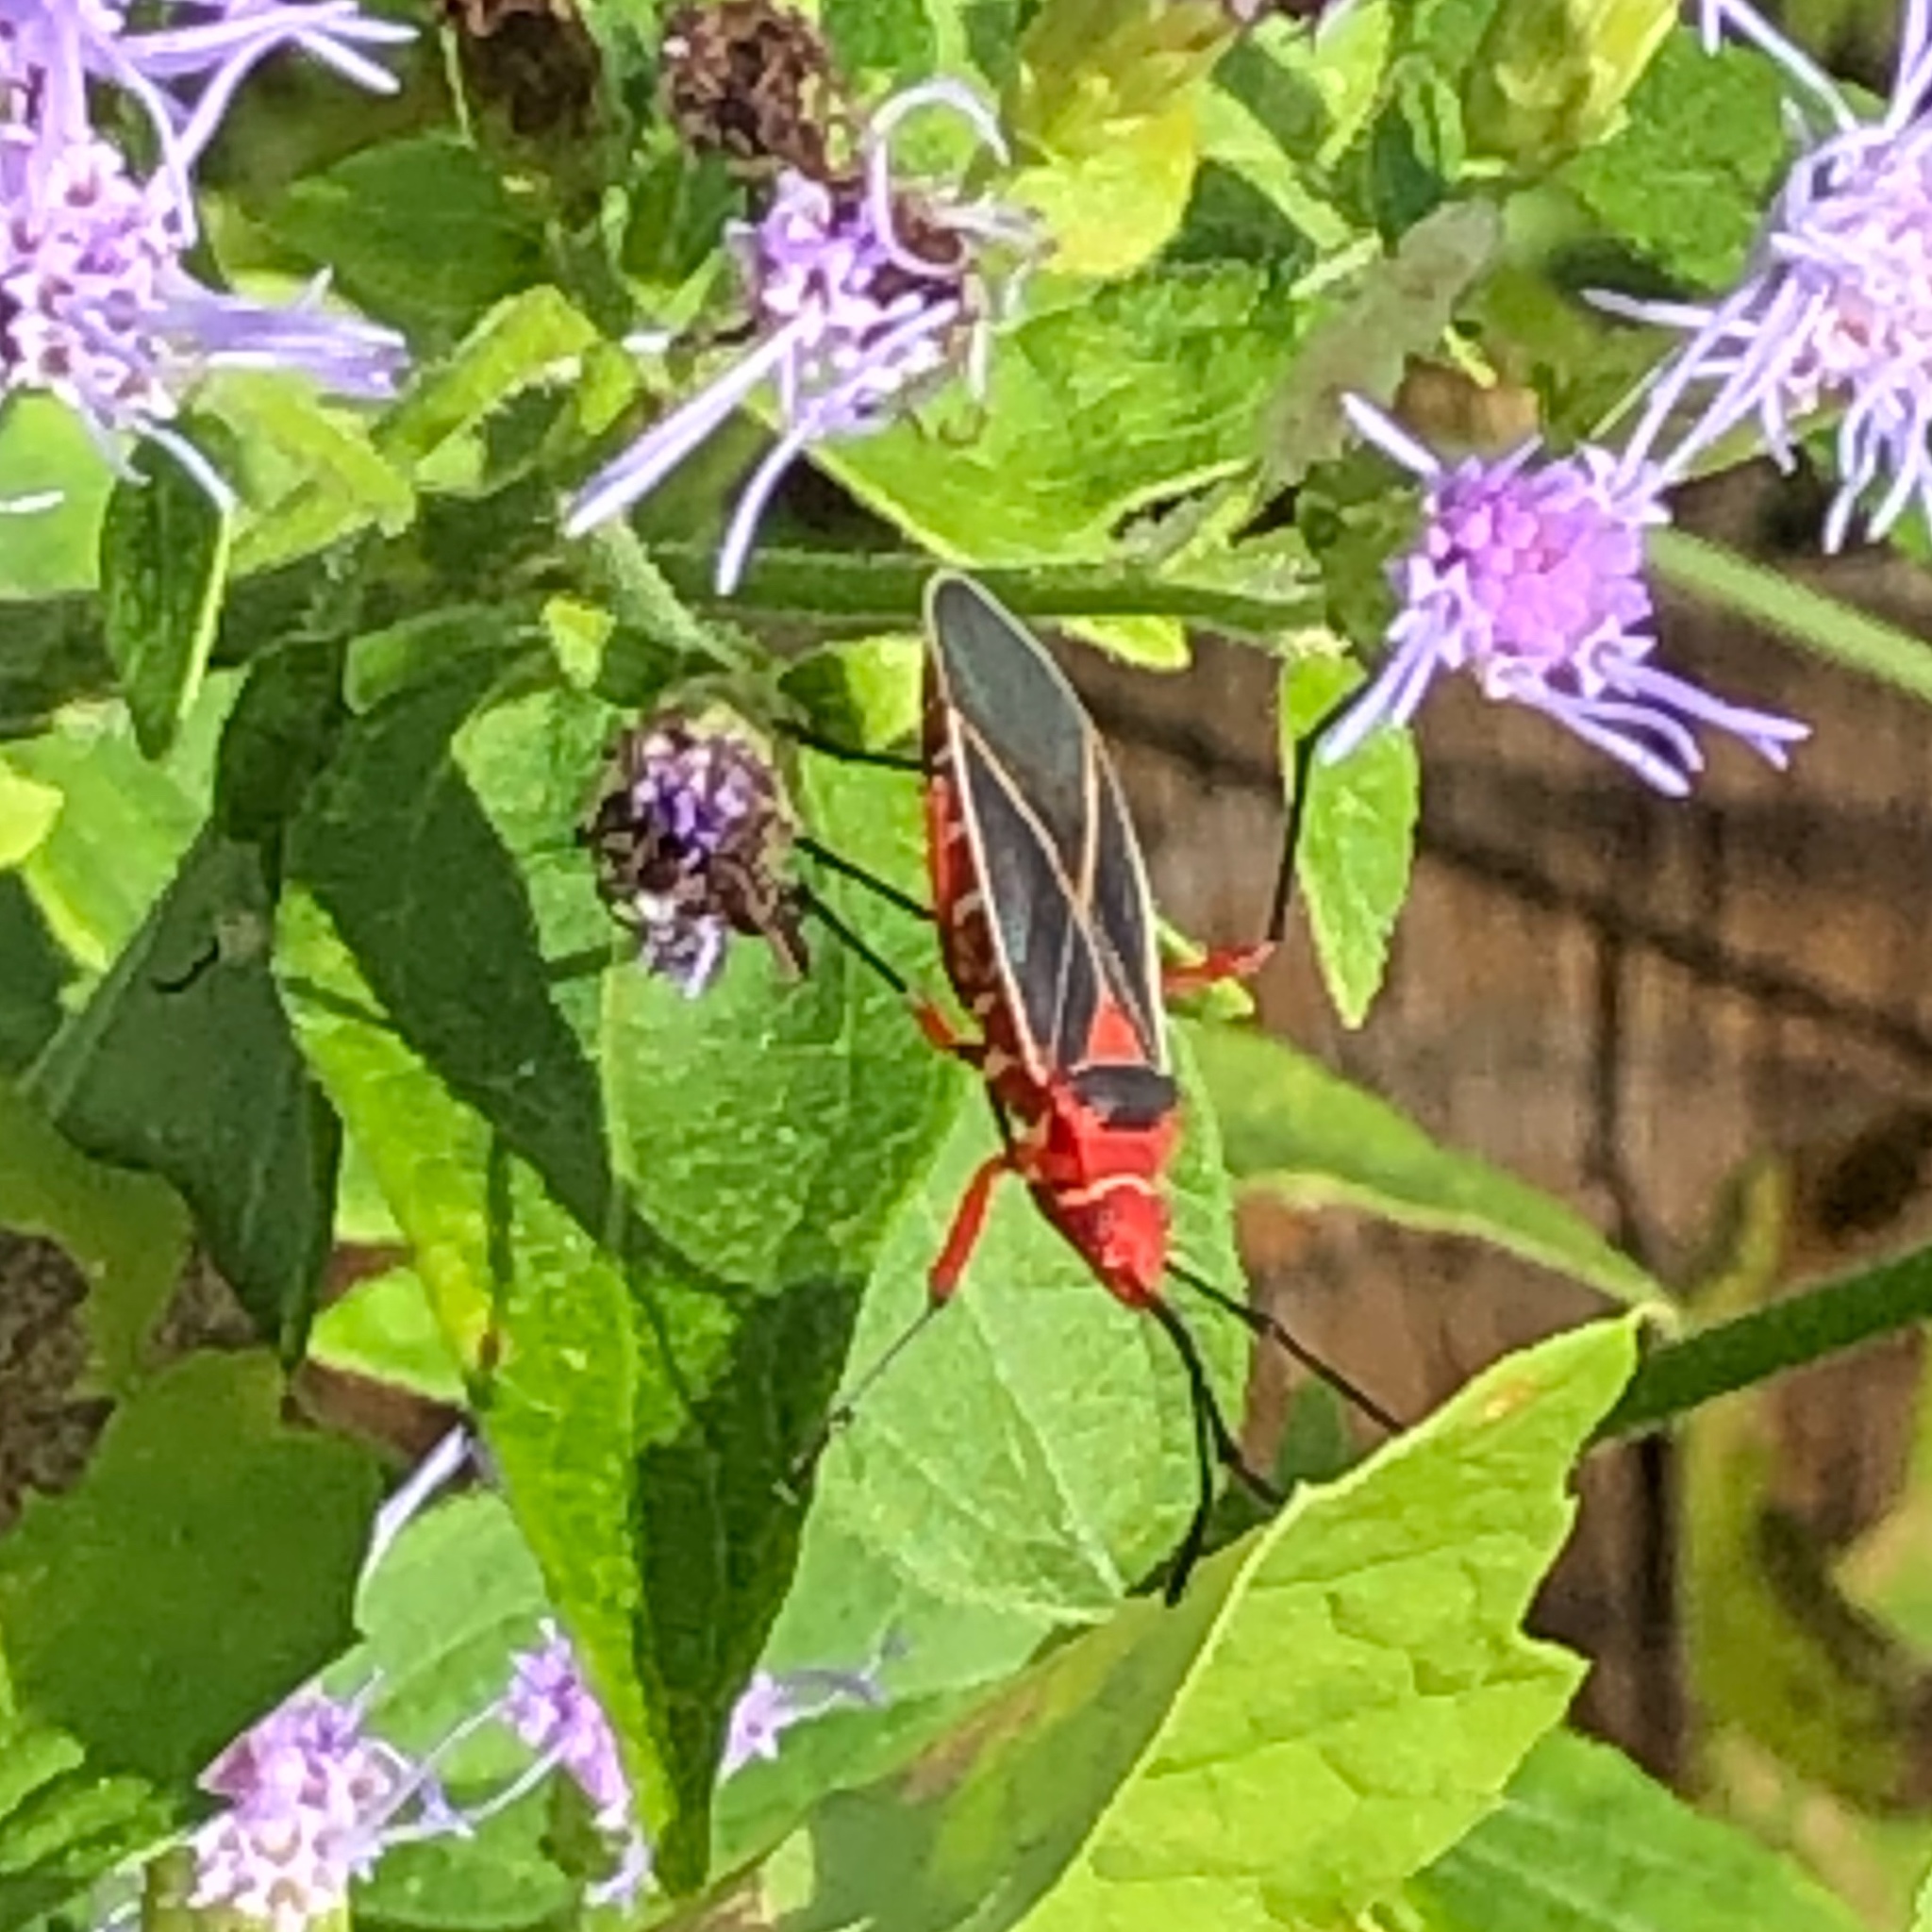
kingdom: Animalia
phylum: Arthropoda
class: Insecta
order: Hemiptera
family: Pyrrhocoridae
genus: Dysdercus
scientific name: Dysdercus suturellus
